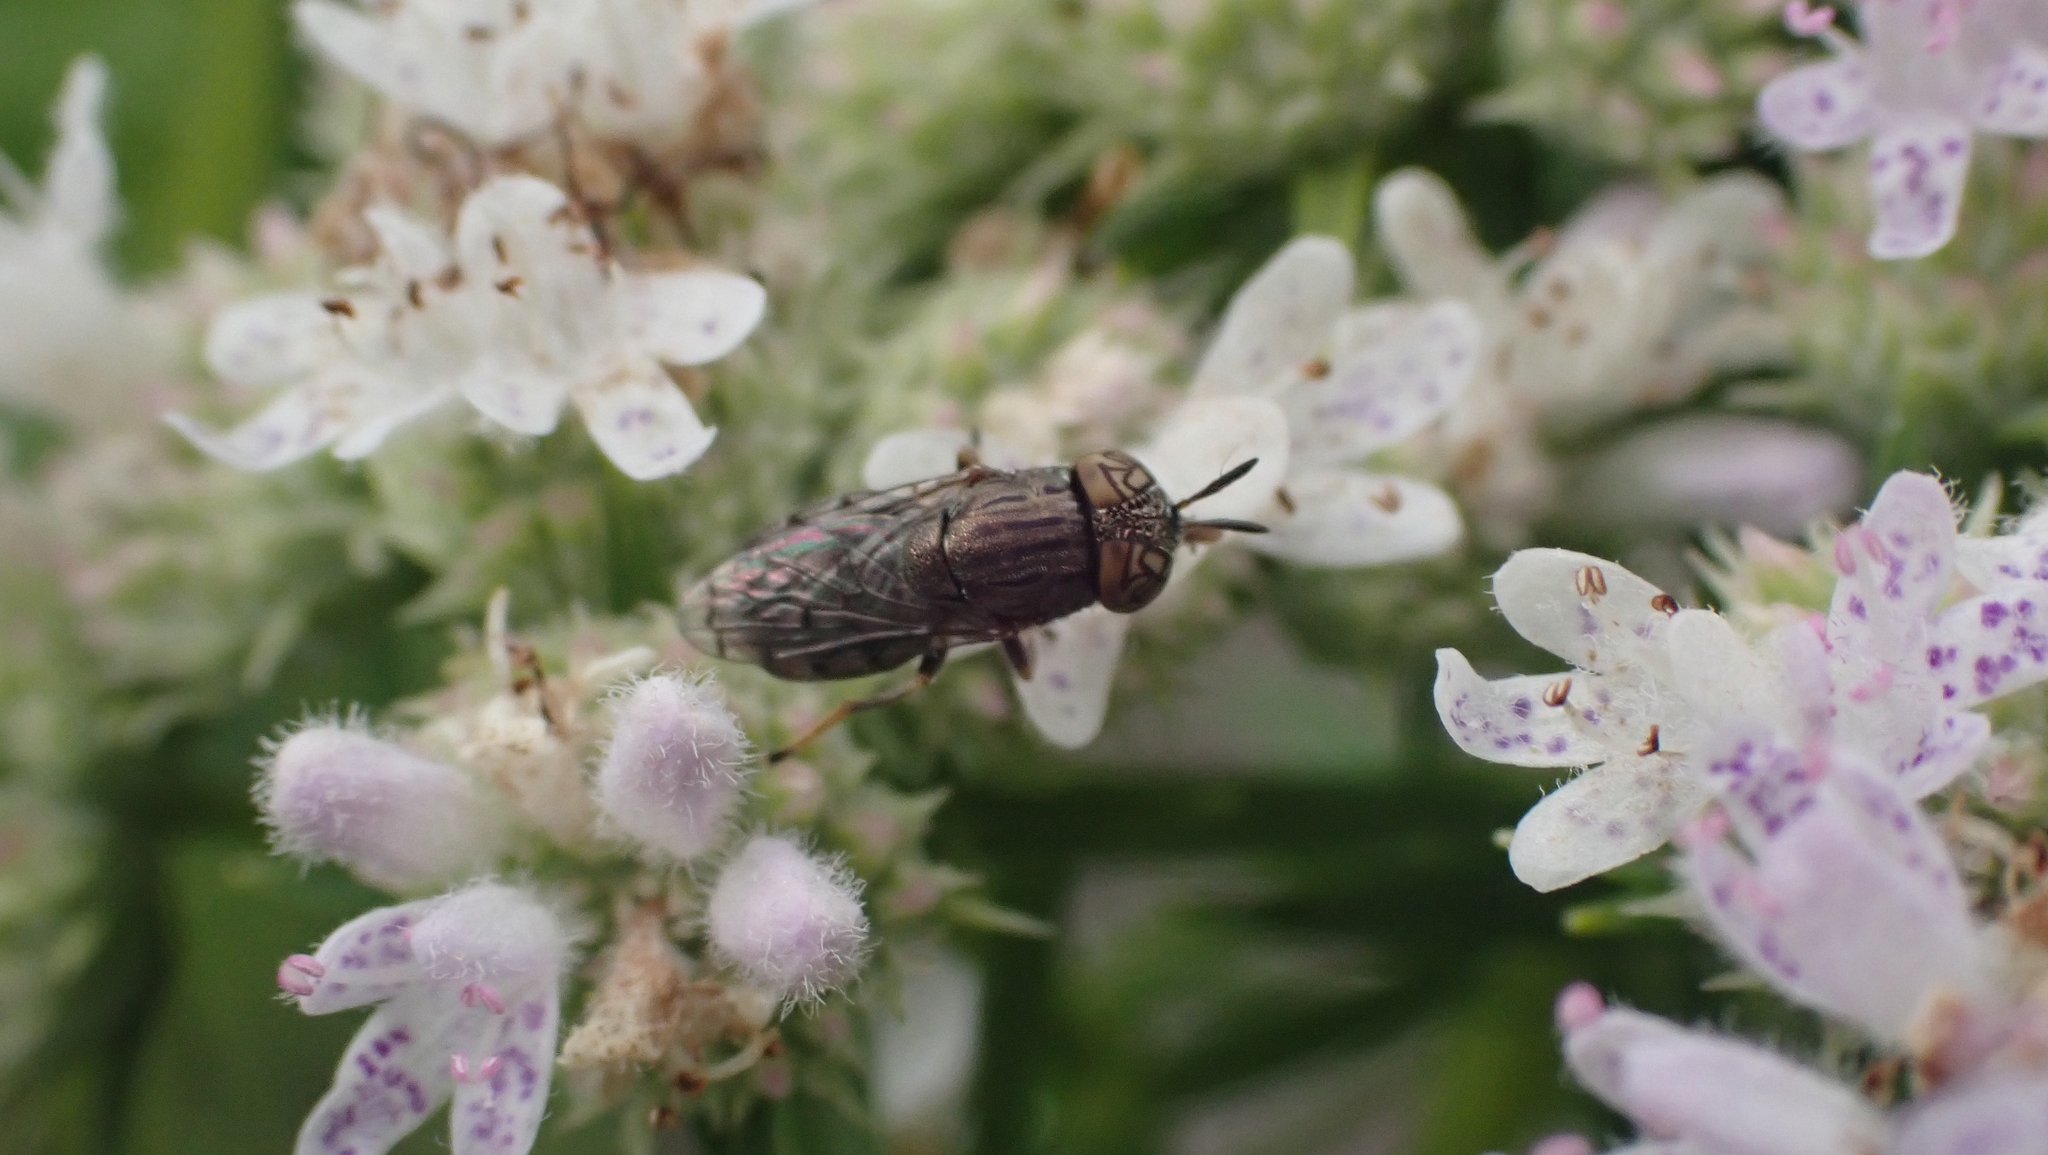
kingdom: Animalia
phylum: Arthropoda
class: Insecta
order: Diptera
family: Syrphidae
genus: Orthonevra
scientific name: Orthonevra nitida
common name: Wavy mucksucker
